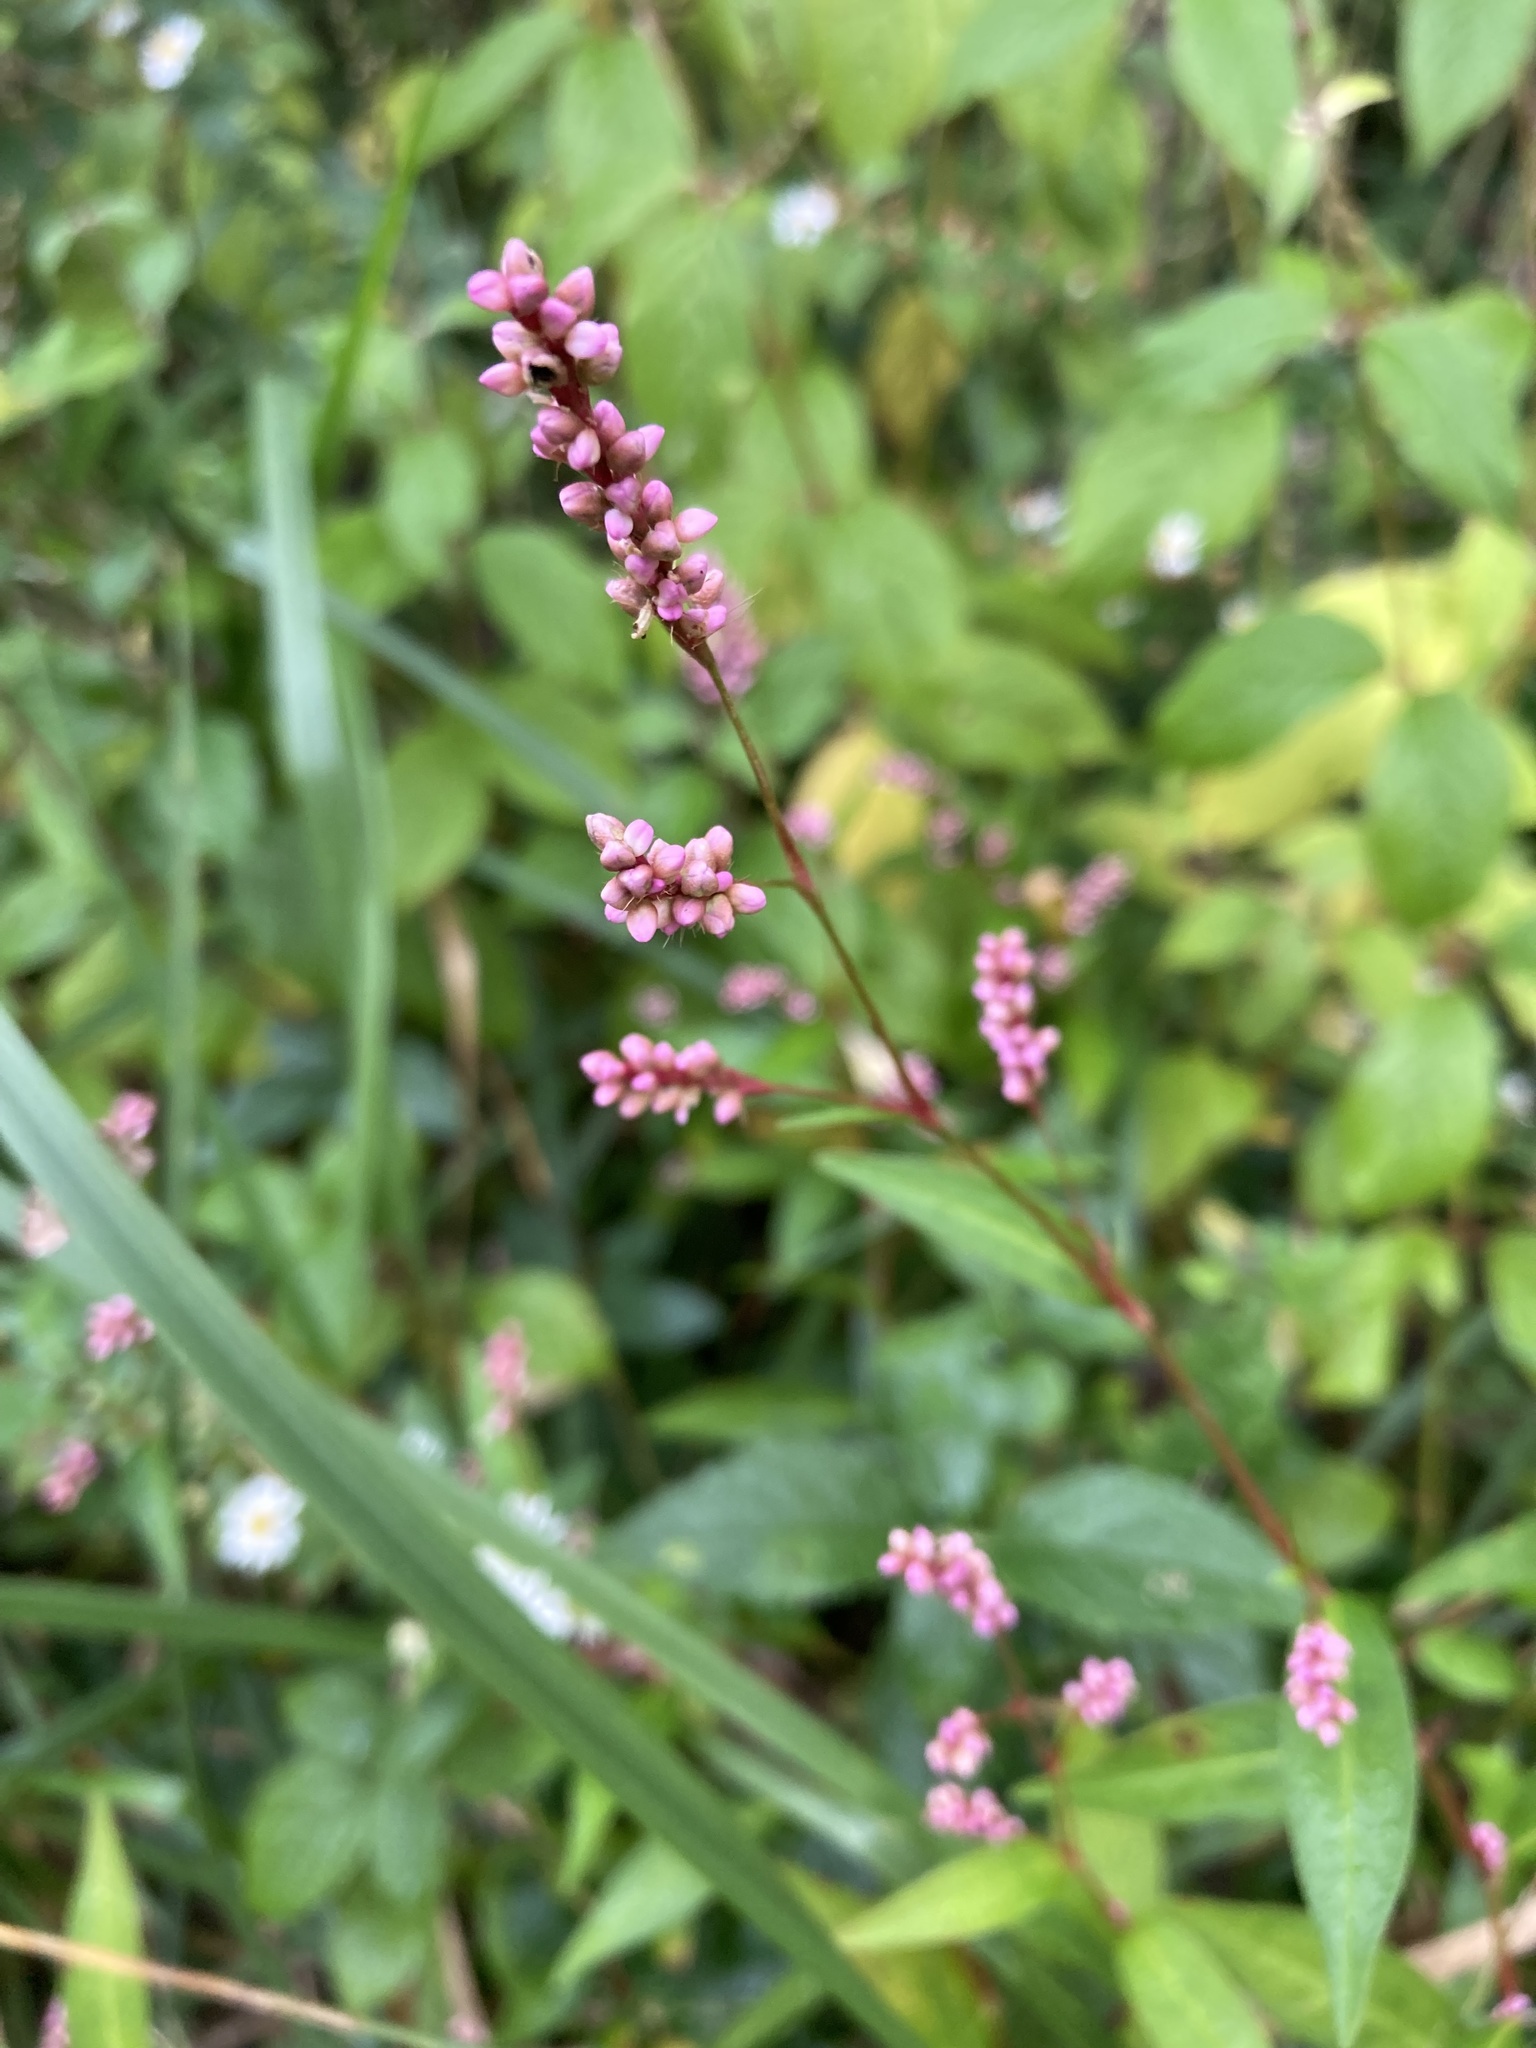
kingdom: Plantae
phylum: Tracheophyta
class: Magnoliopsida
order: Caryophyllales
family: Polygonaceae
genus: Persicaria
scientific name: Persicaria longiseta
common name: Bristly lady's-thumb
